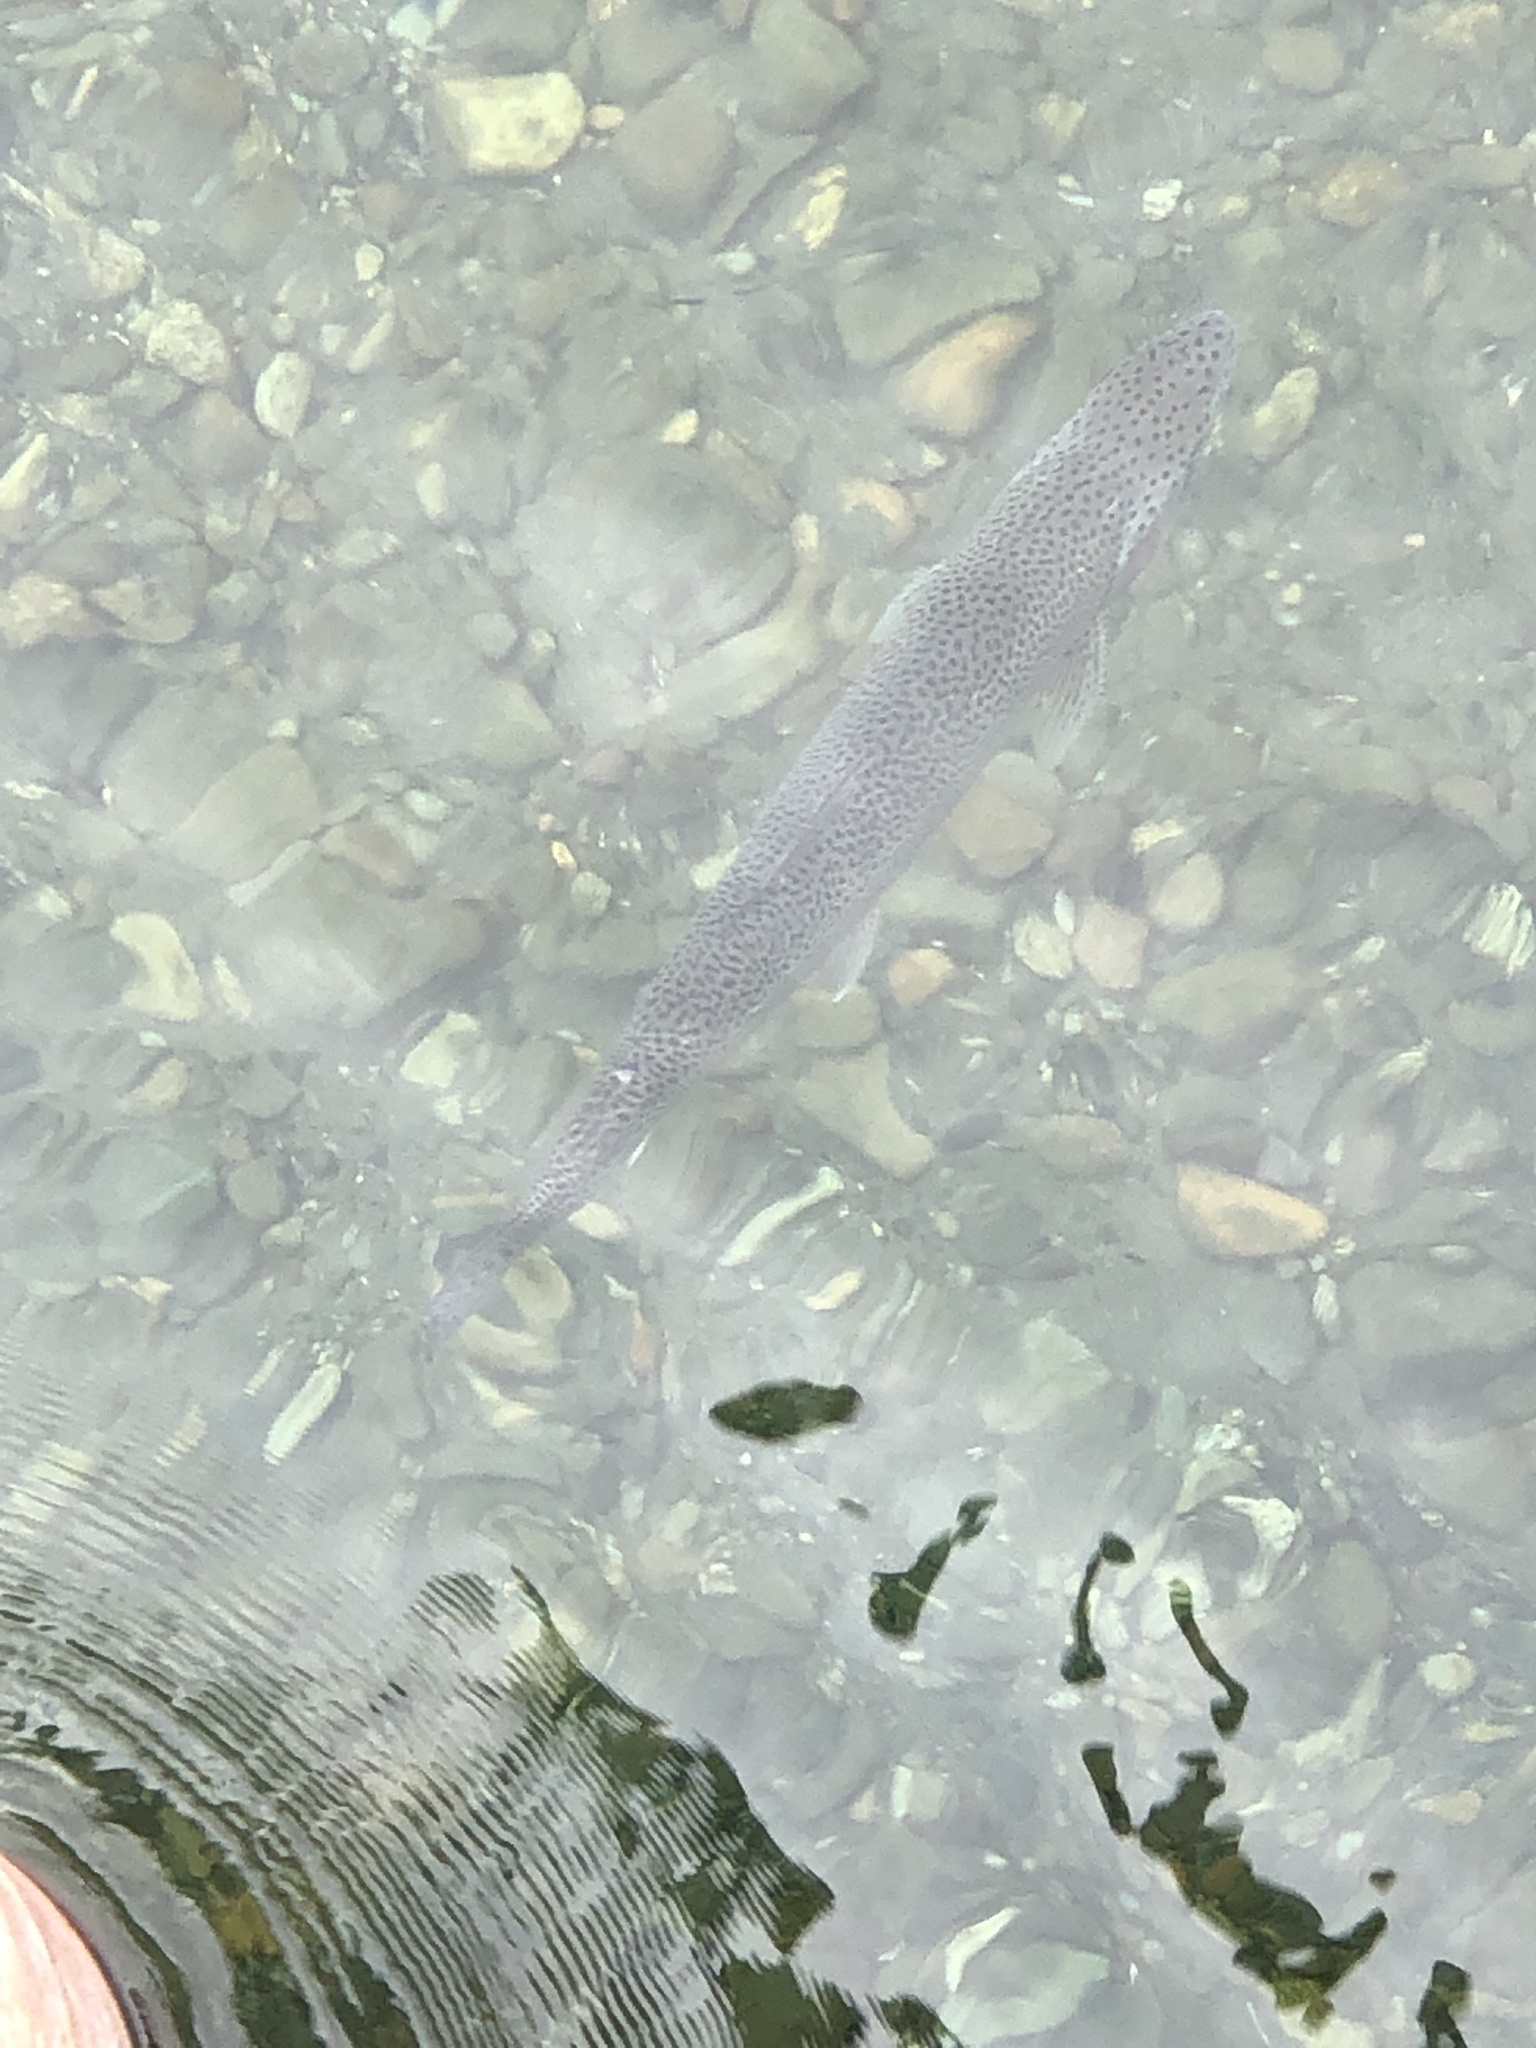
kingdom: Animalia
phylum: Chordata
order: Salmoniformes
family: Salmonidae
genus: Oncorhynchus
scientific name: Oncorhynchus mykiss
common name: Rainbow trout
